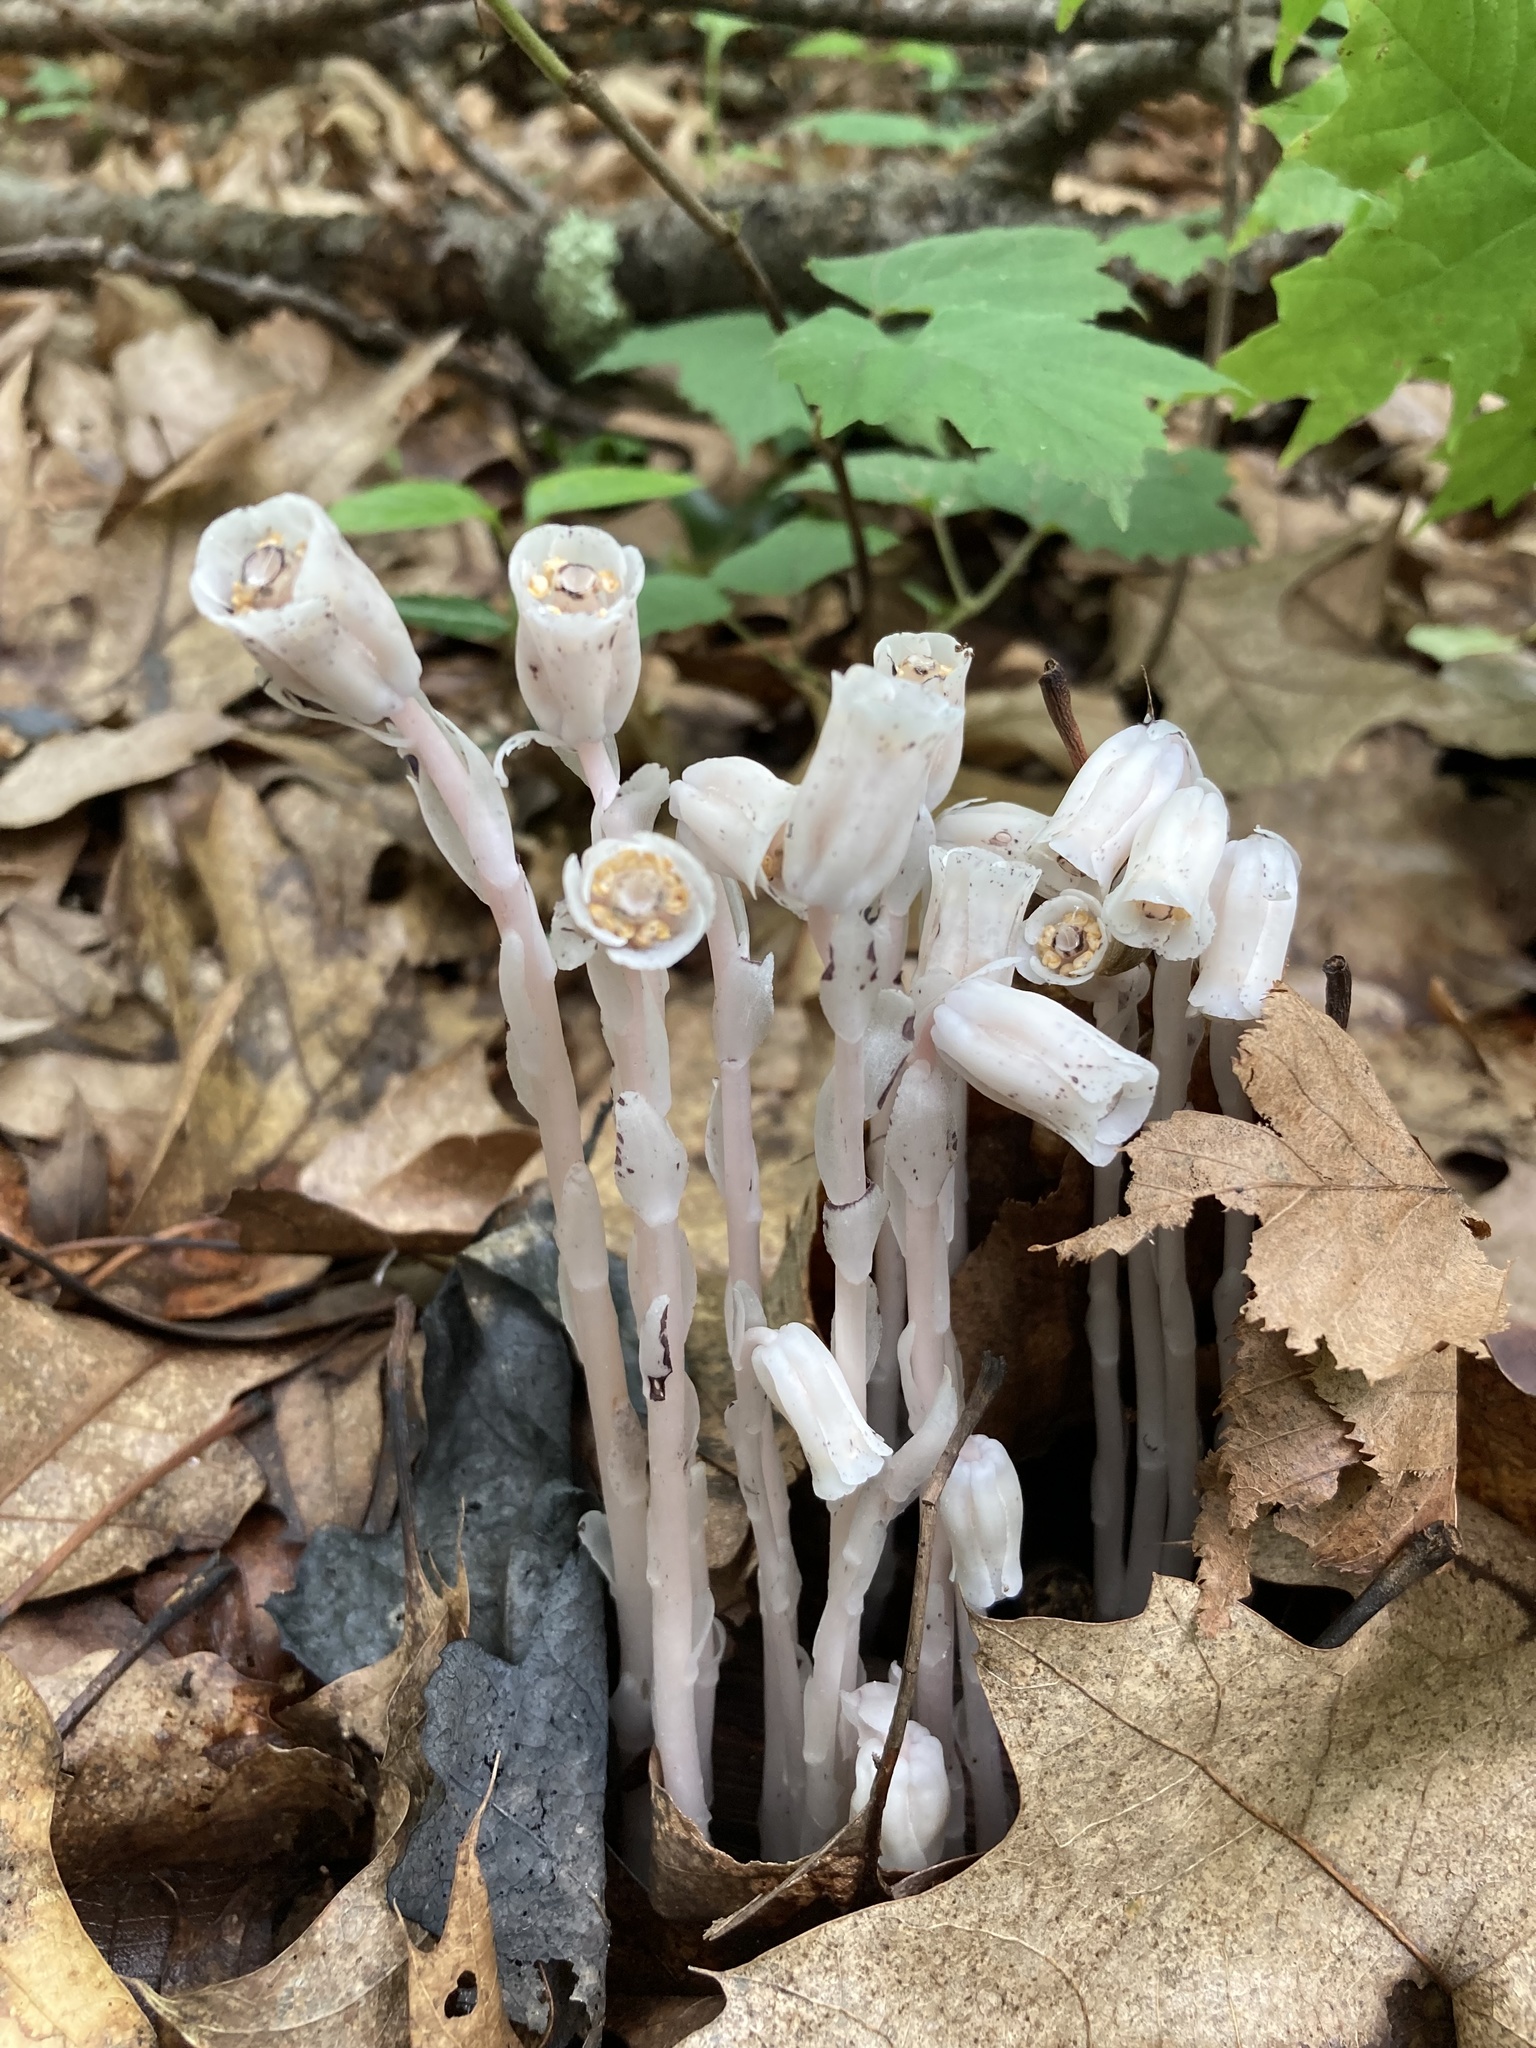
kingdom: Plantae
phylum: Tracheophyta
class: Magnoliopsida
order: Ericales
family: Ericaceae
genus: Monotropa
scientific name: Monotropa uniflora
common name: Convulsion root
